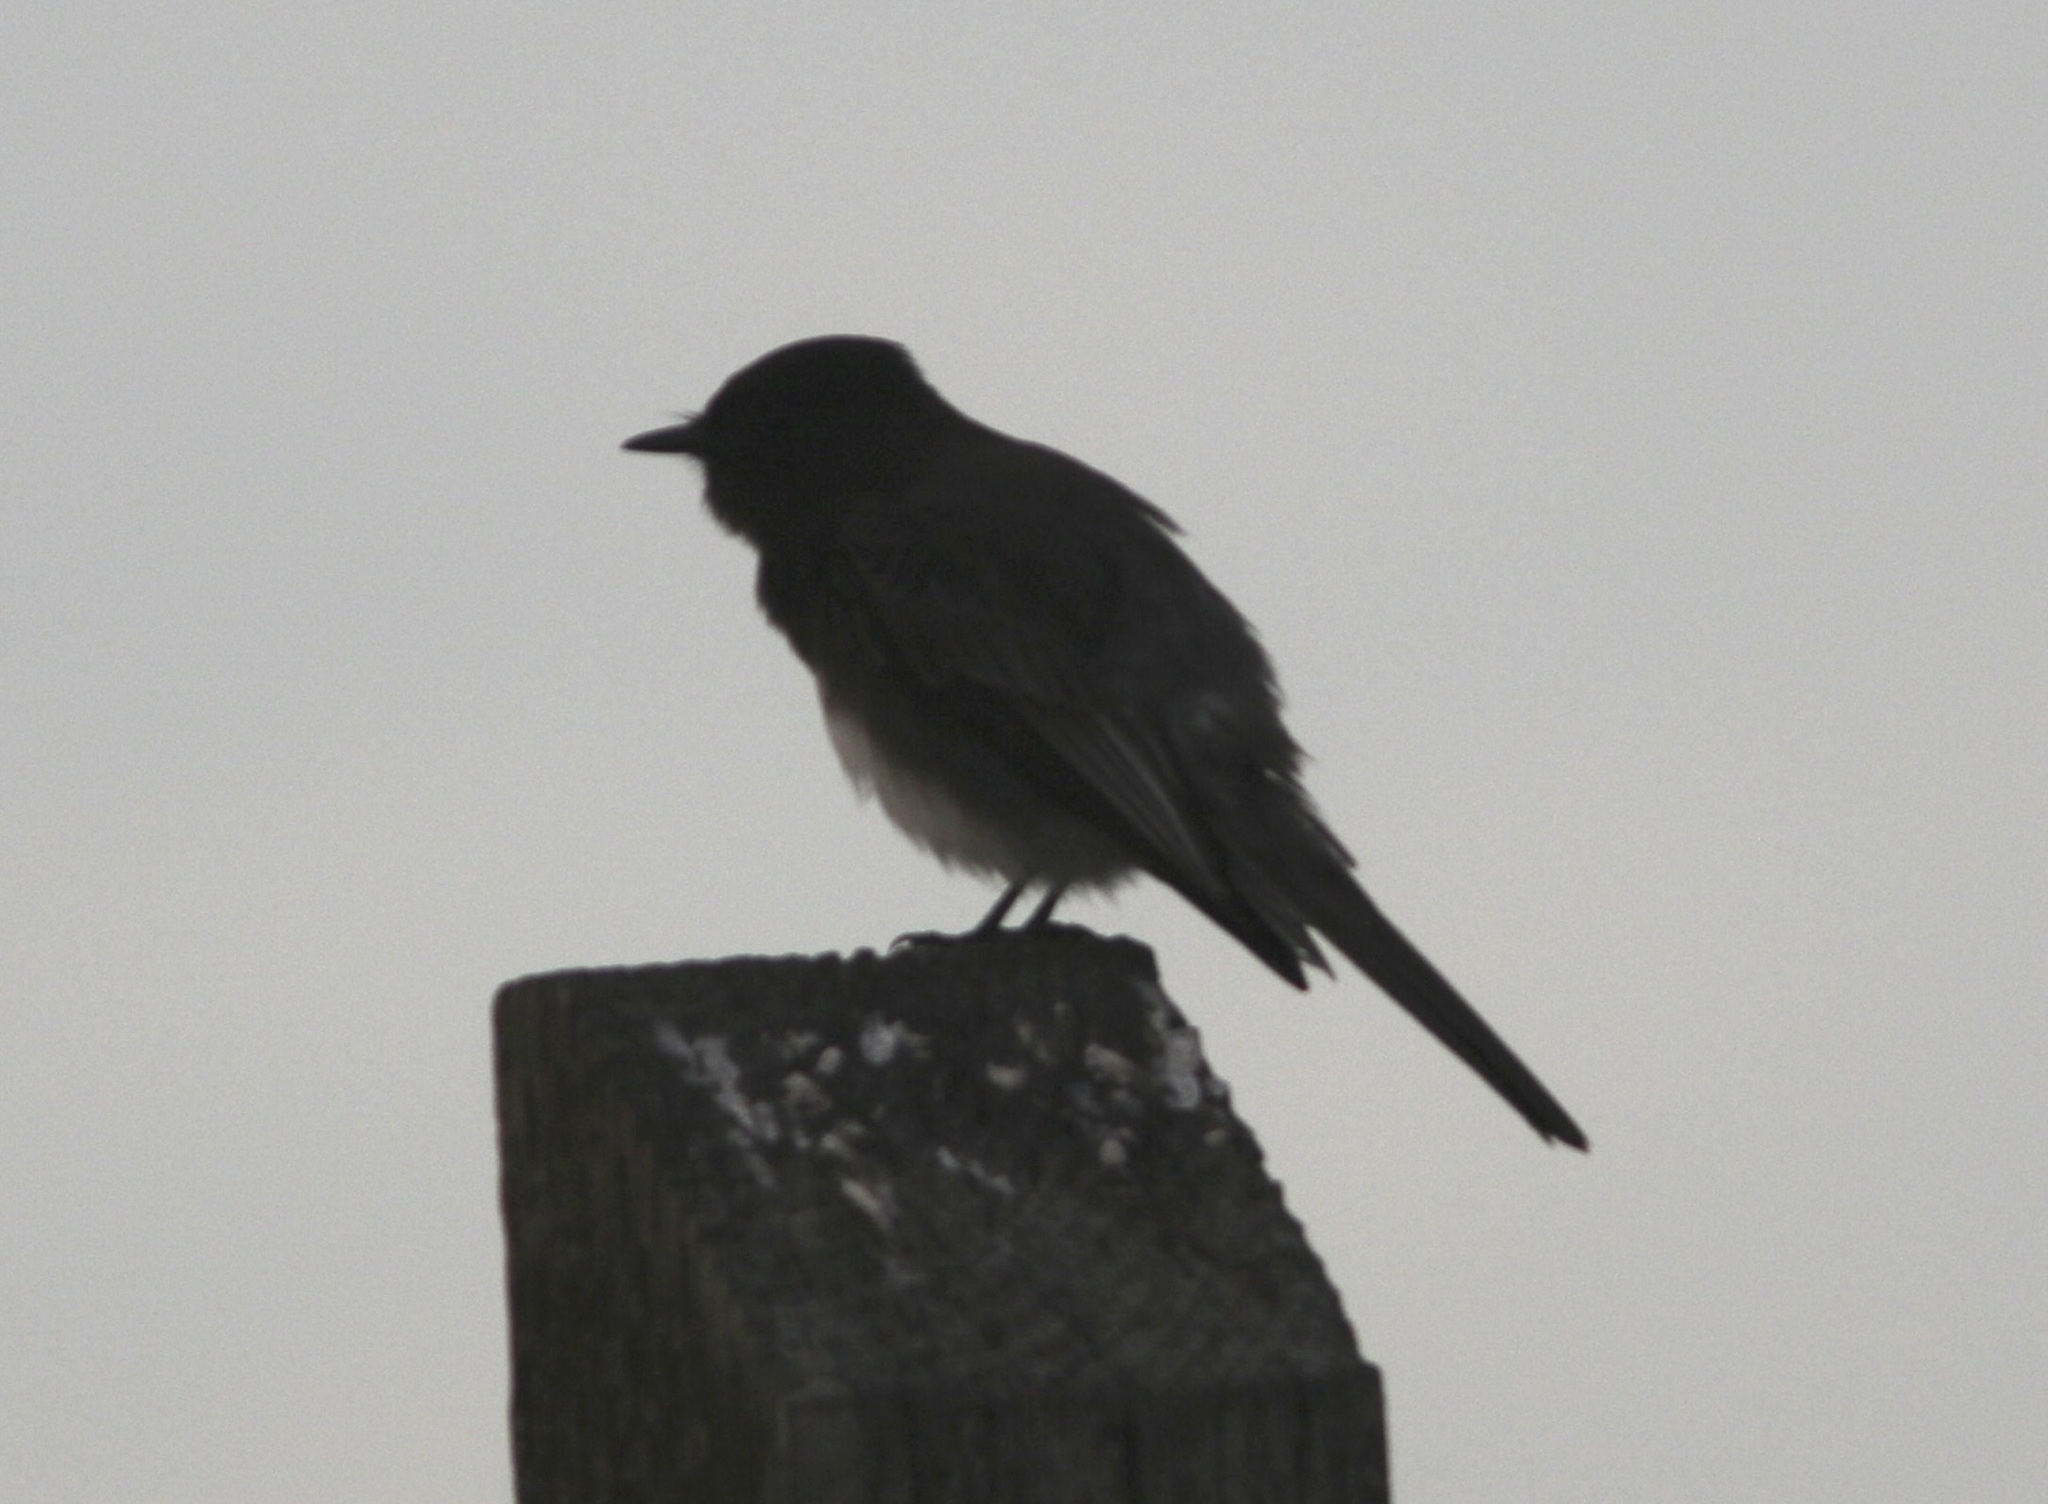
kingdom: Animalia
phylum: Chordata
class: Aves
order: Passeriformes
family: Tyrannidae
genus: Sayornis
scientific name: Sayornis nigricans
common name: Black phoebe
